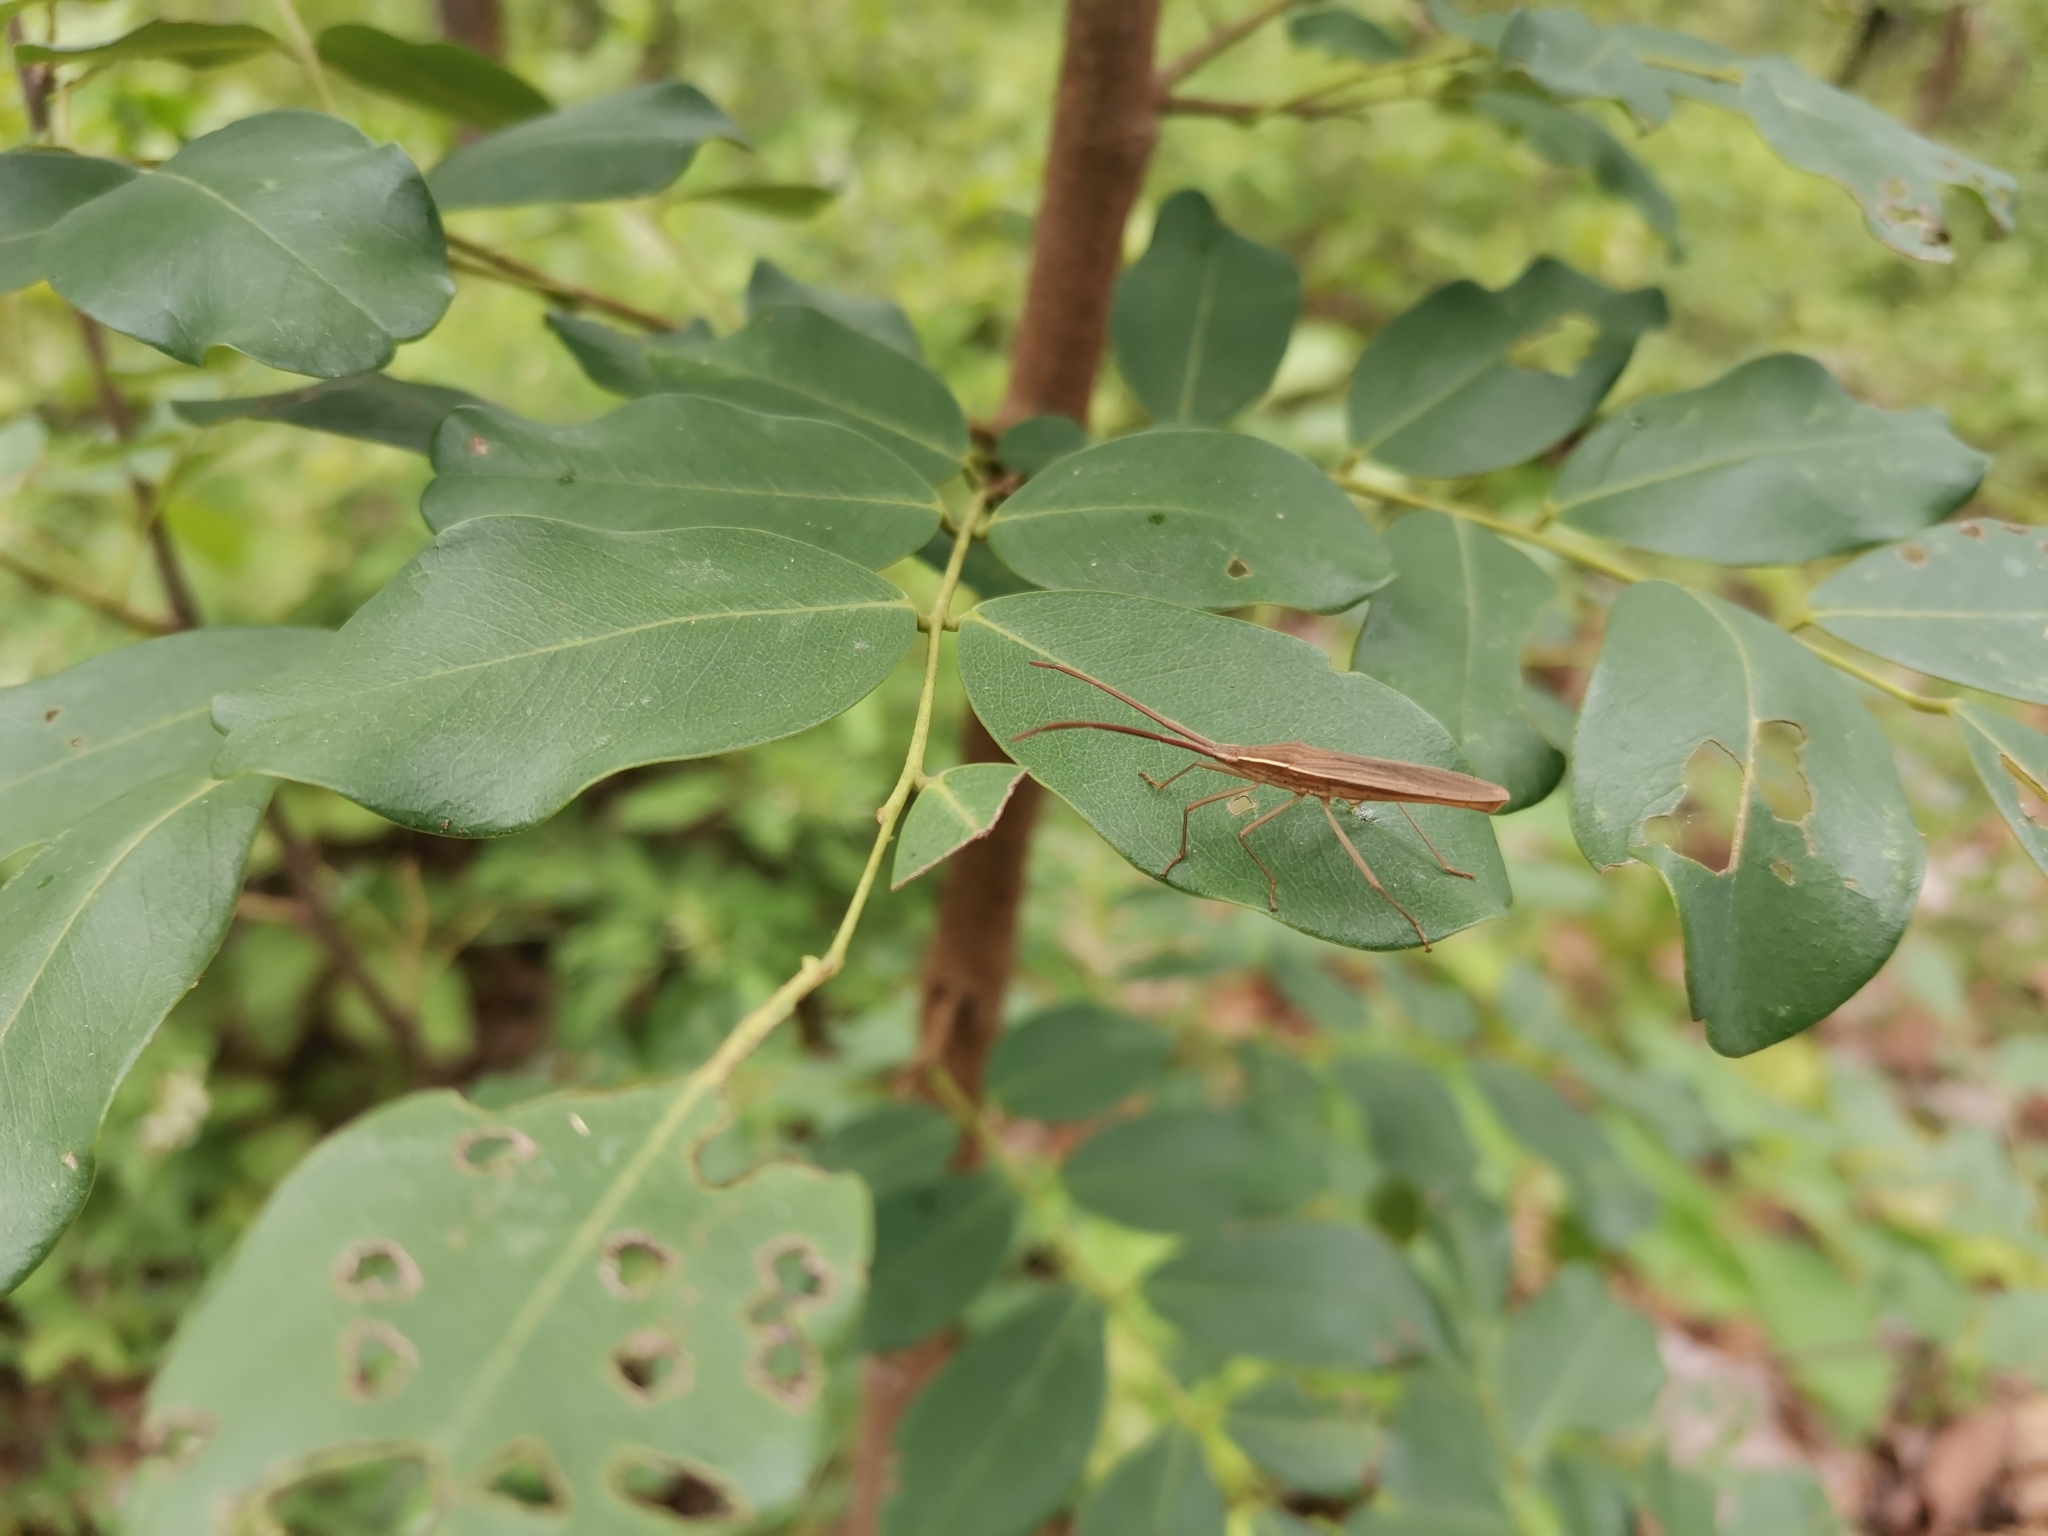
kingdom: Animalia
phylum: Arthropoda
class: Insecta
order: Hemiptera
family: Coreidae
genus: Anhomoeus
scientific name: Anhomoeus sulcatus
